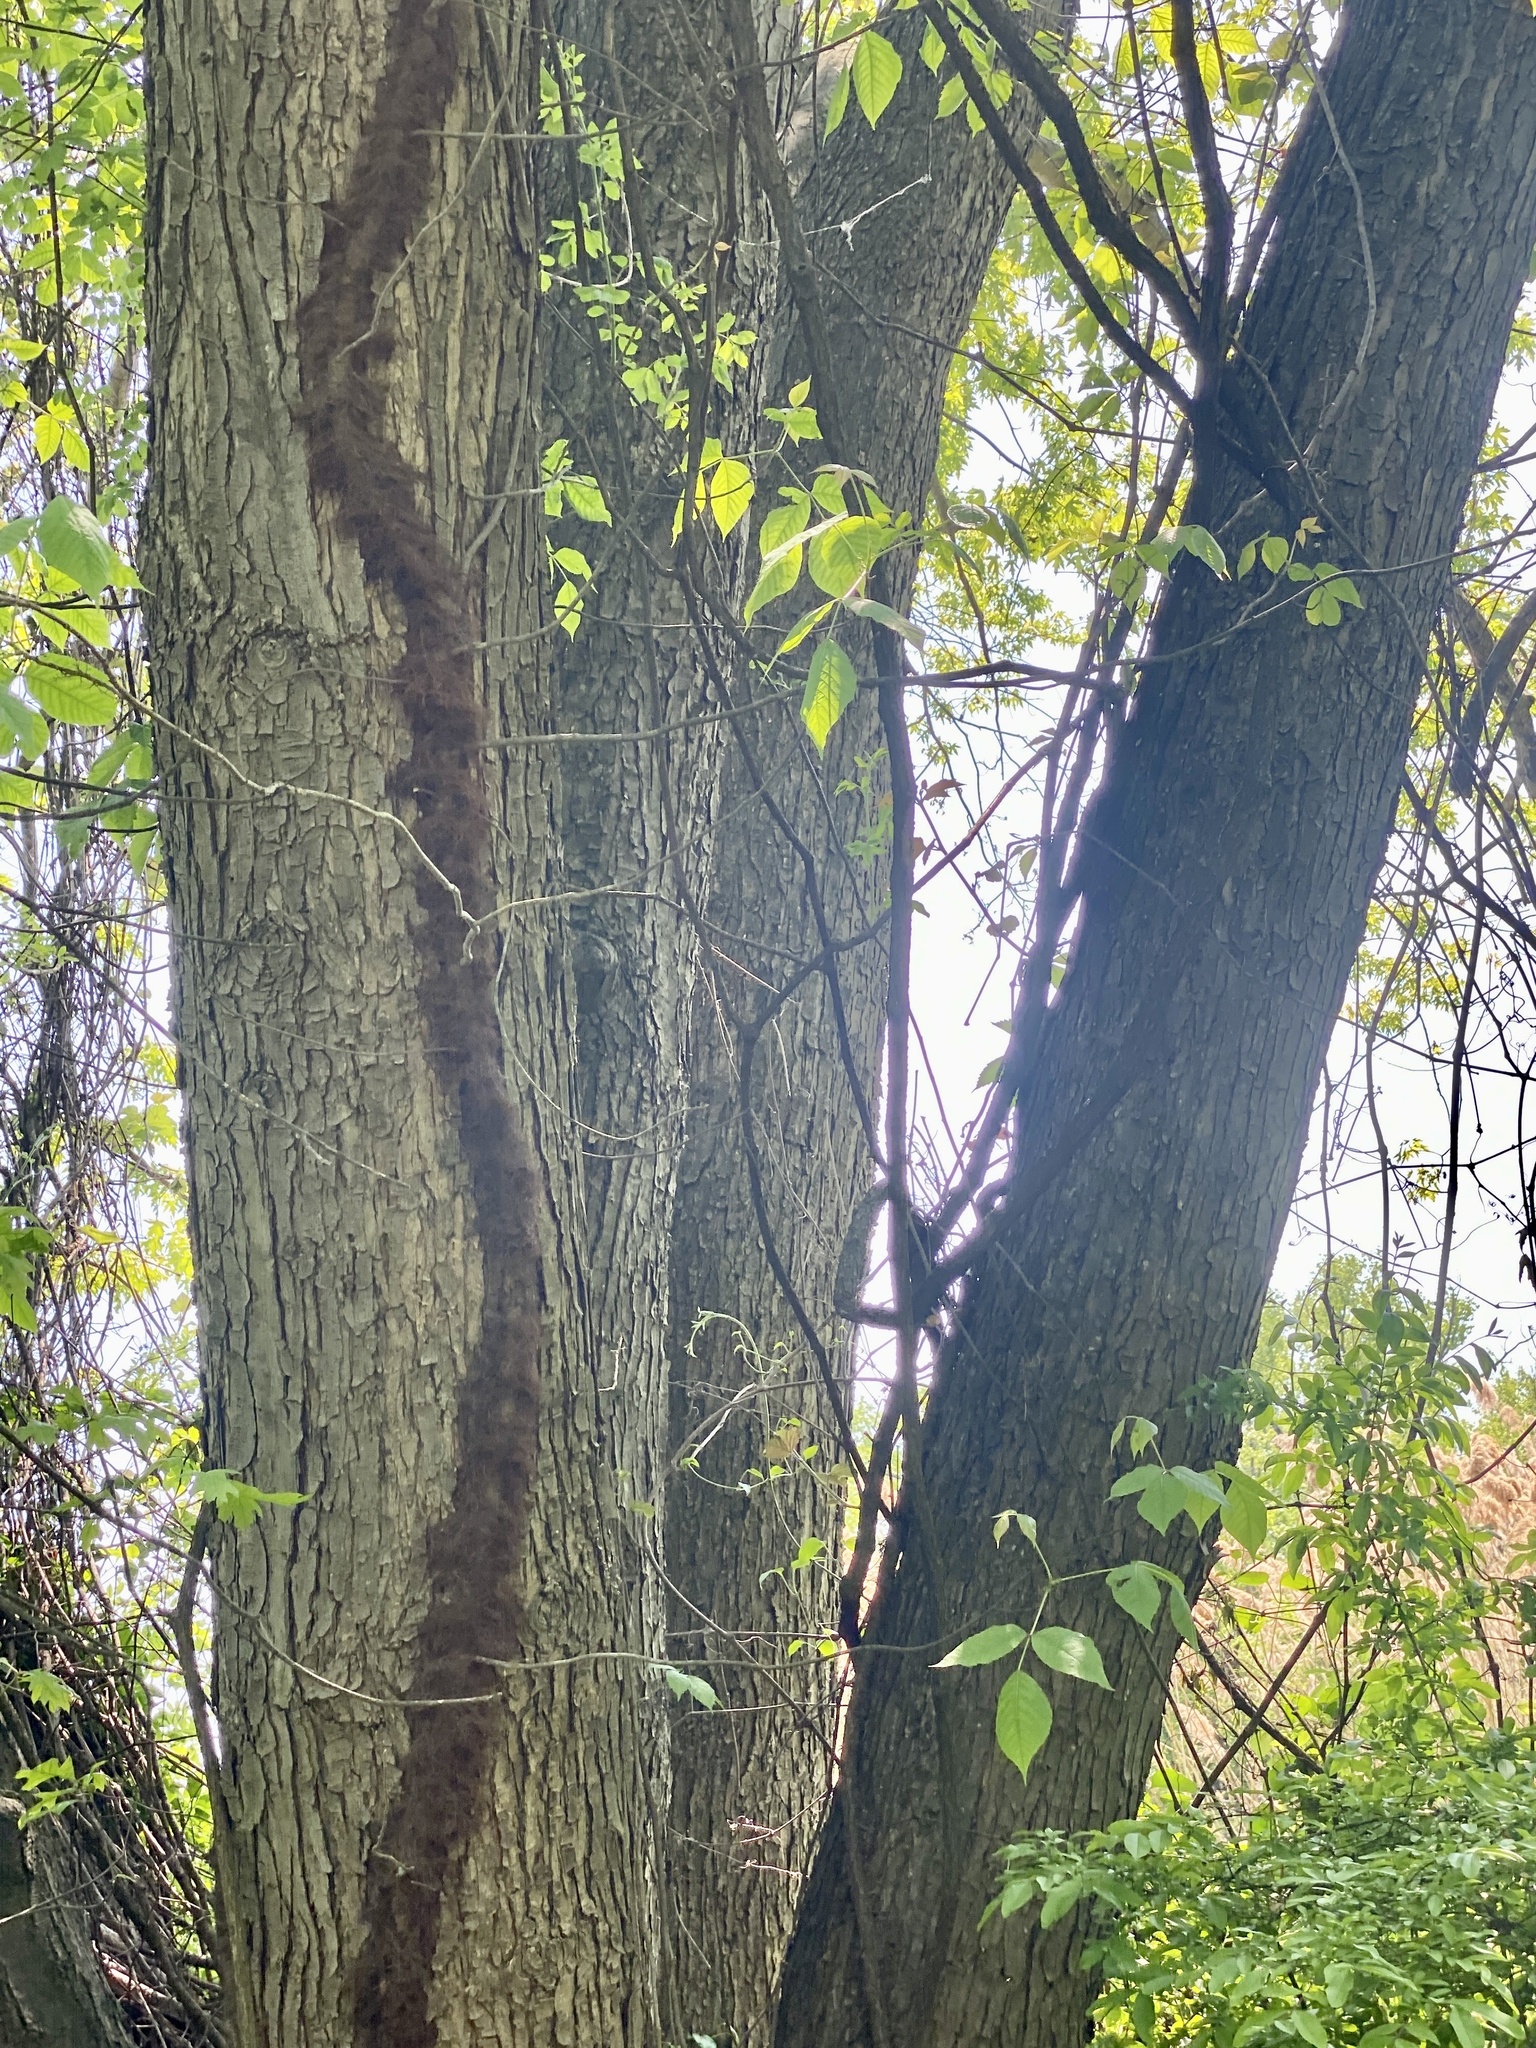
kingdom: Plantae
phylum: Tracheophyta
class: Magnoliopsida
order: Sapindales
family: Sapindaceae
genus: Acer
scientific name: Acer saccharinum
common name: Silver maple
